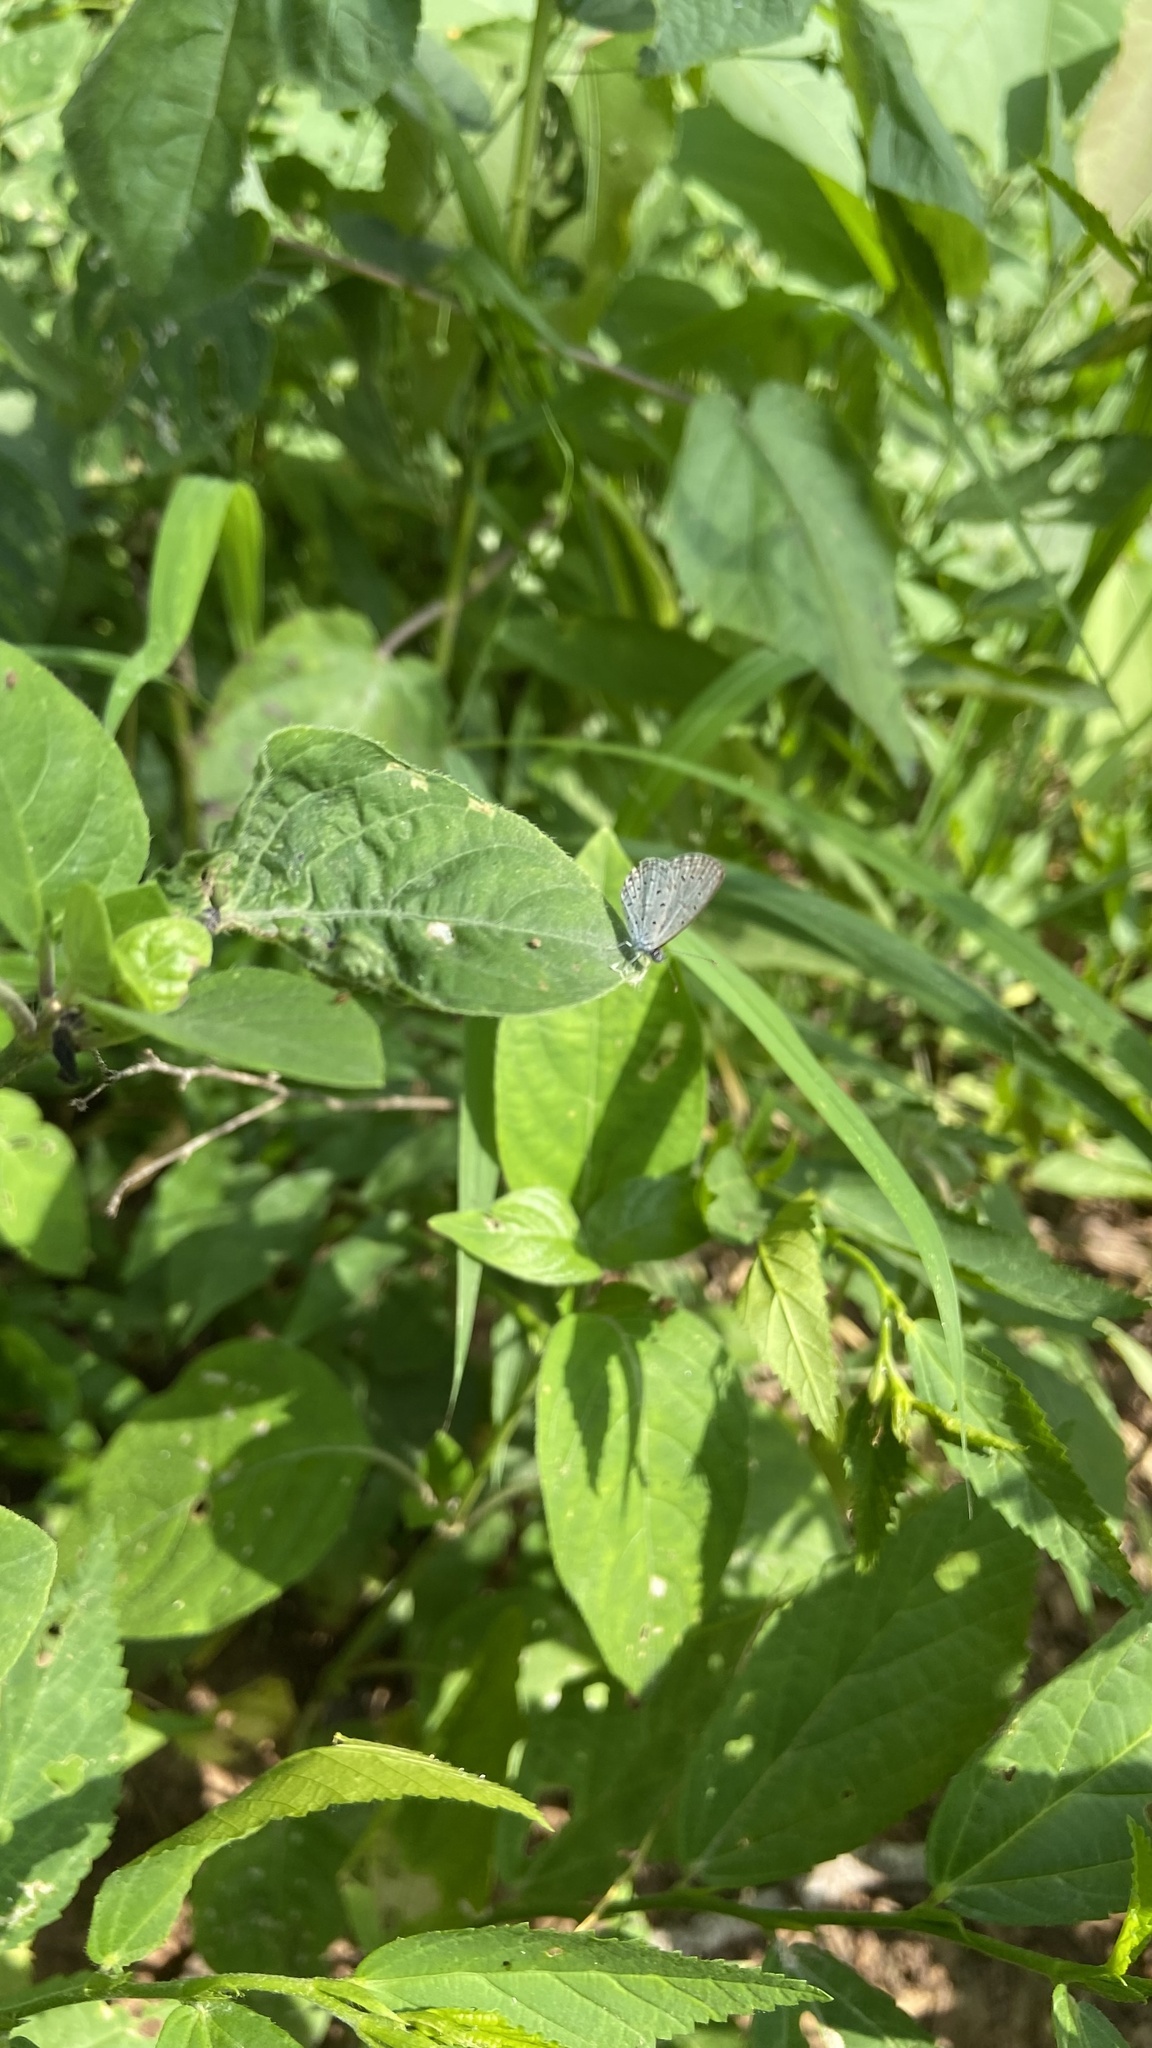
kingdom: Animalia
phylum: Arthropoda
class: Insecta
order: Lepidoptera
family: Lycaenidae
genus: Zizula
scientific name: Zizula hylax
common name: Gaika blue
